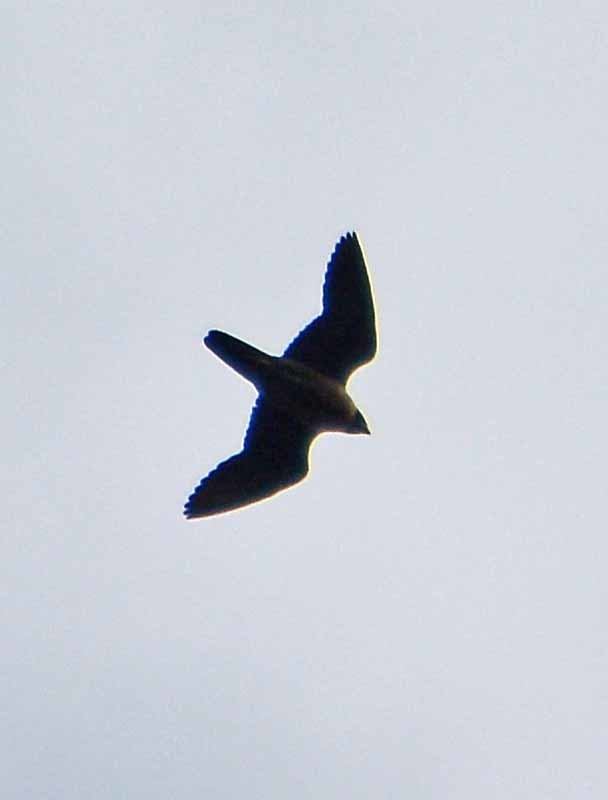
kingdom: Animalia
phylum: Chordata
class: Aves
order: Falconiformes
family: Falconidae
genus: Falco
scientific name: Falco peregrinus
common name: Peregrine falcon
